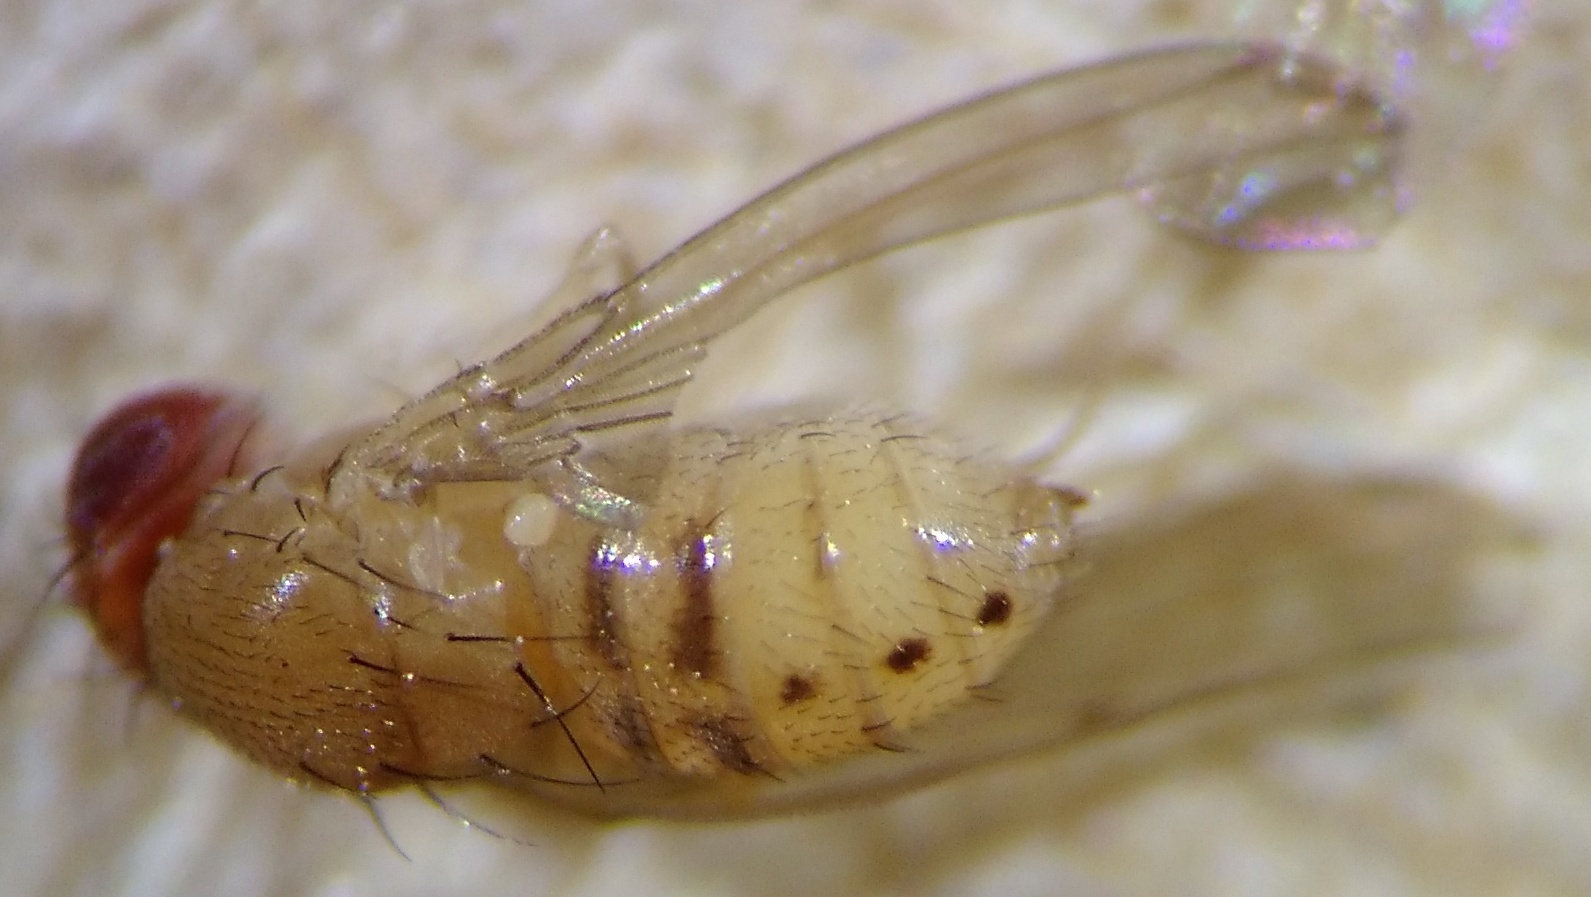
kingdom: Animalia
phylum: Arthropoda
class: Insecta
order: Diptera
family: Drosophilidae
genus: Drosophila
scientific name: Drosophila tripunctata
